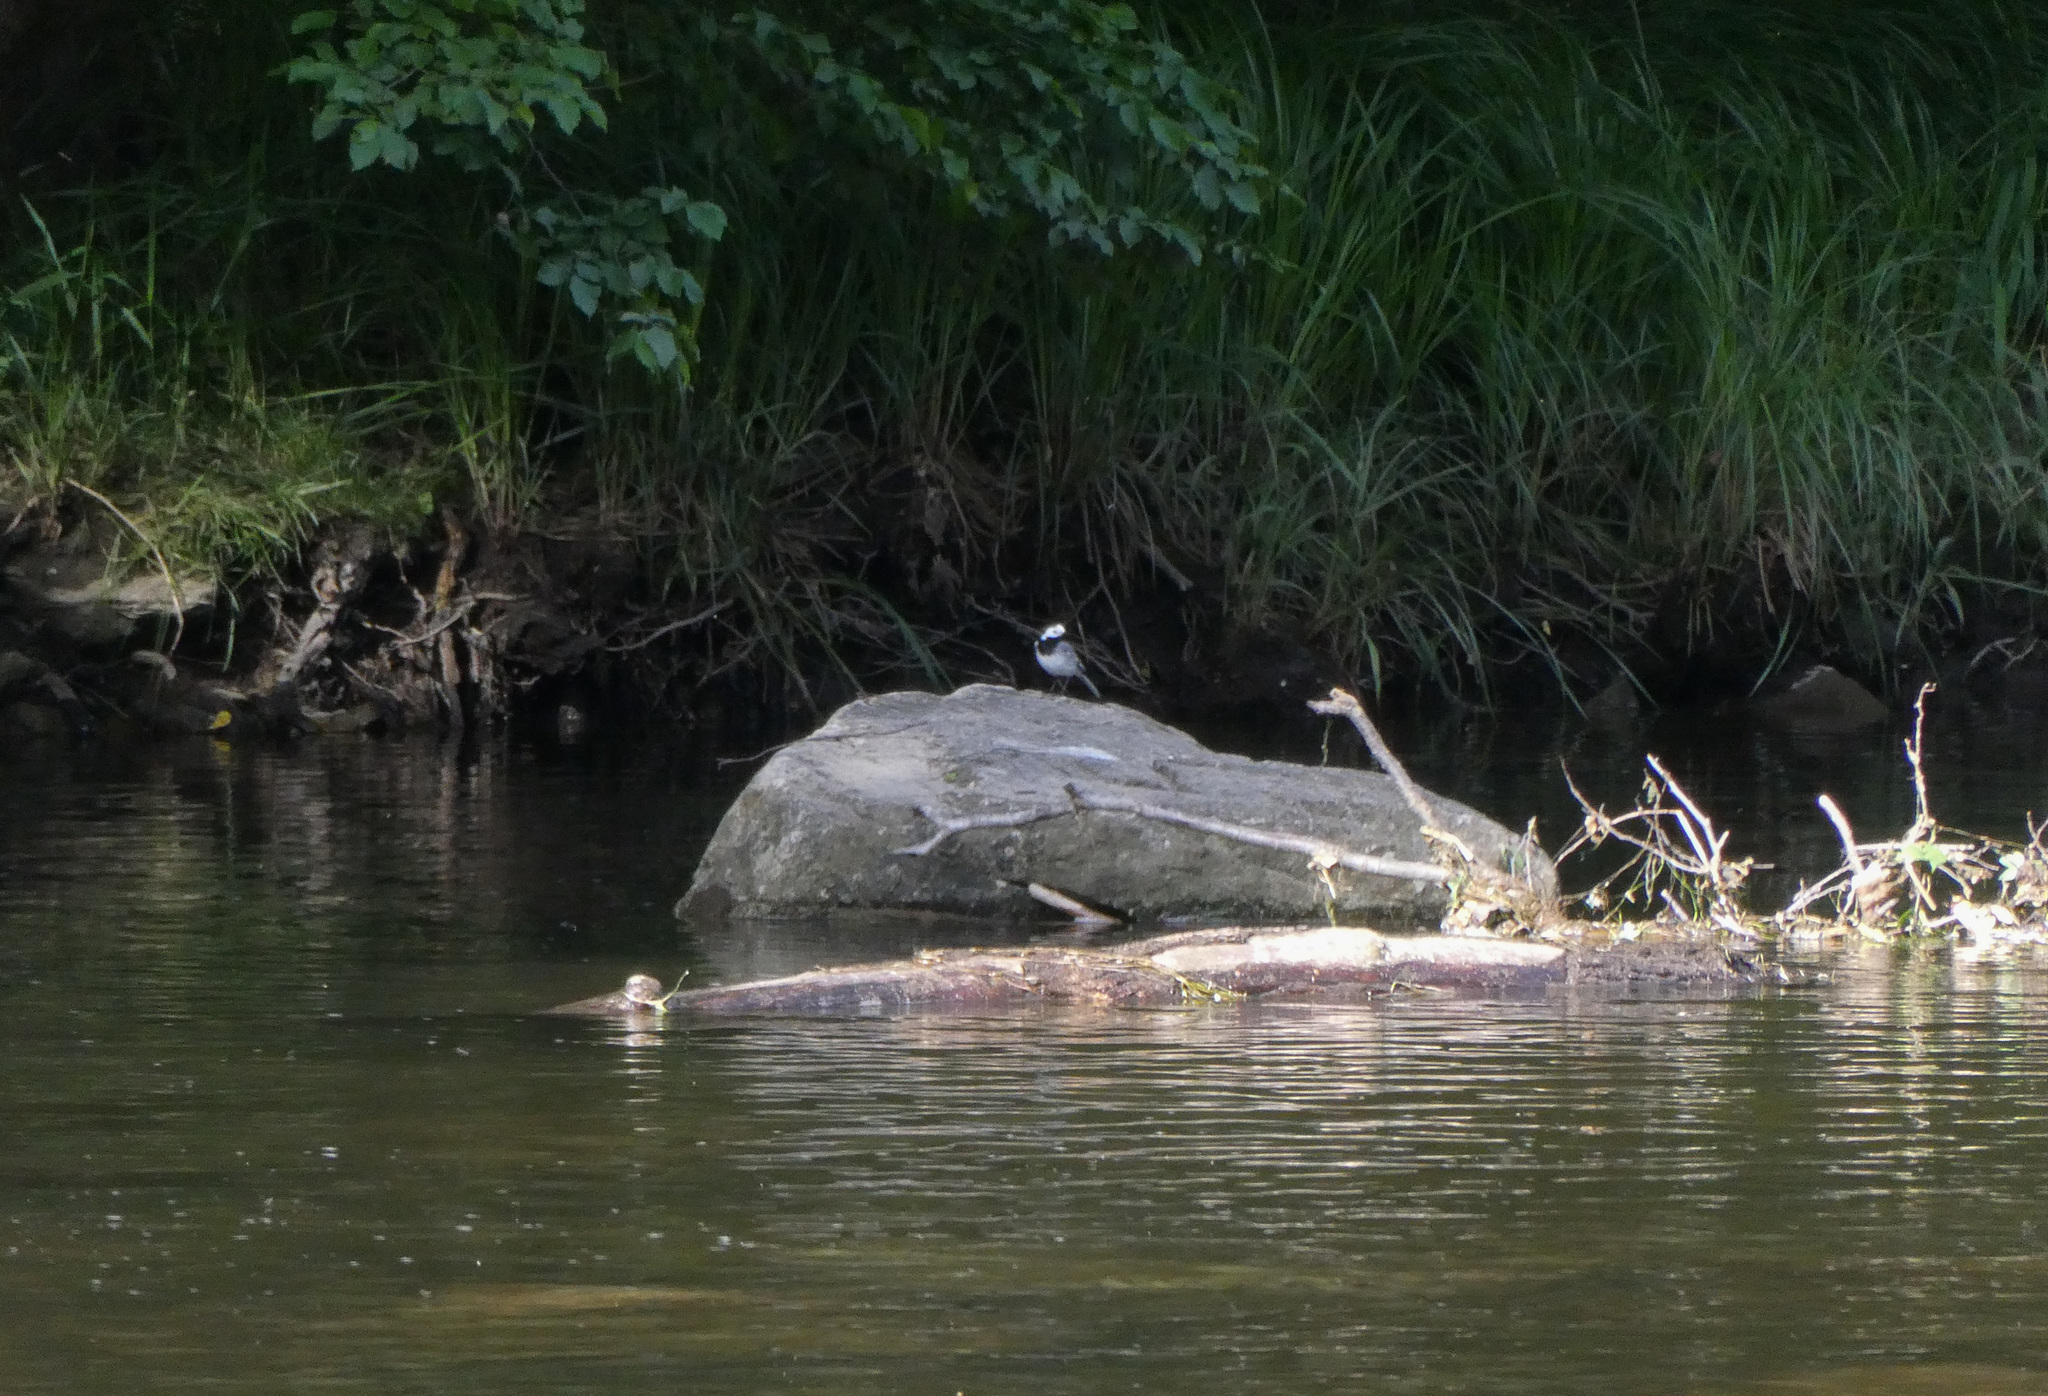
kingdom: Animalia
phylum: Chordata
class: Aves
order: Passeriformes
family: Motacillidae
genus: Motacilla
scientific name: Motacilla alba
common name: White wagtail
